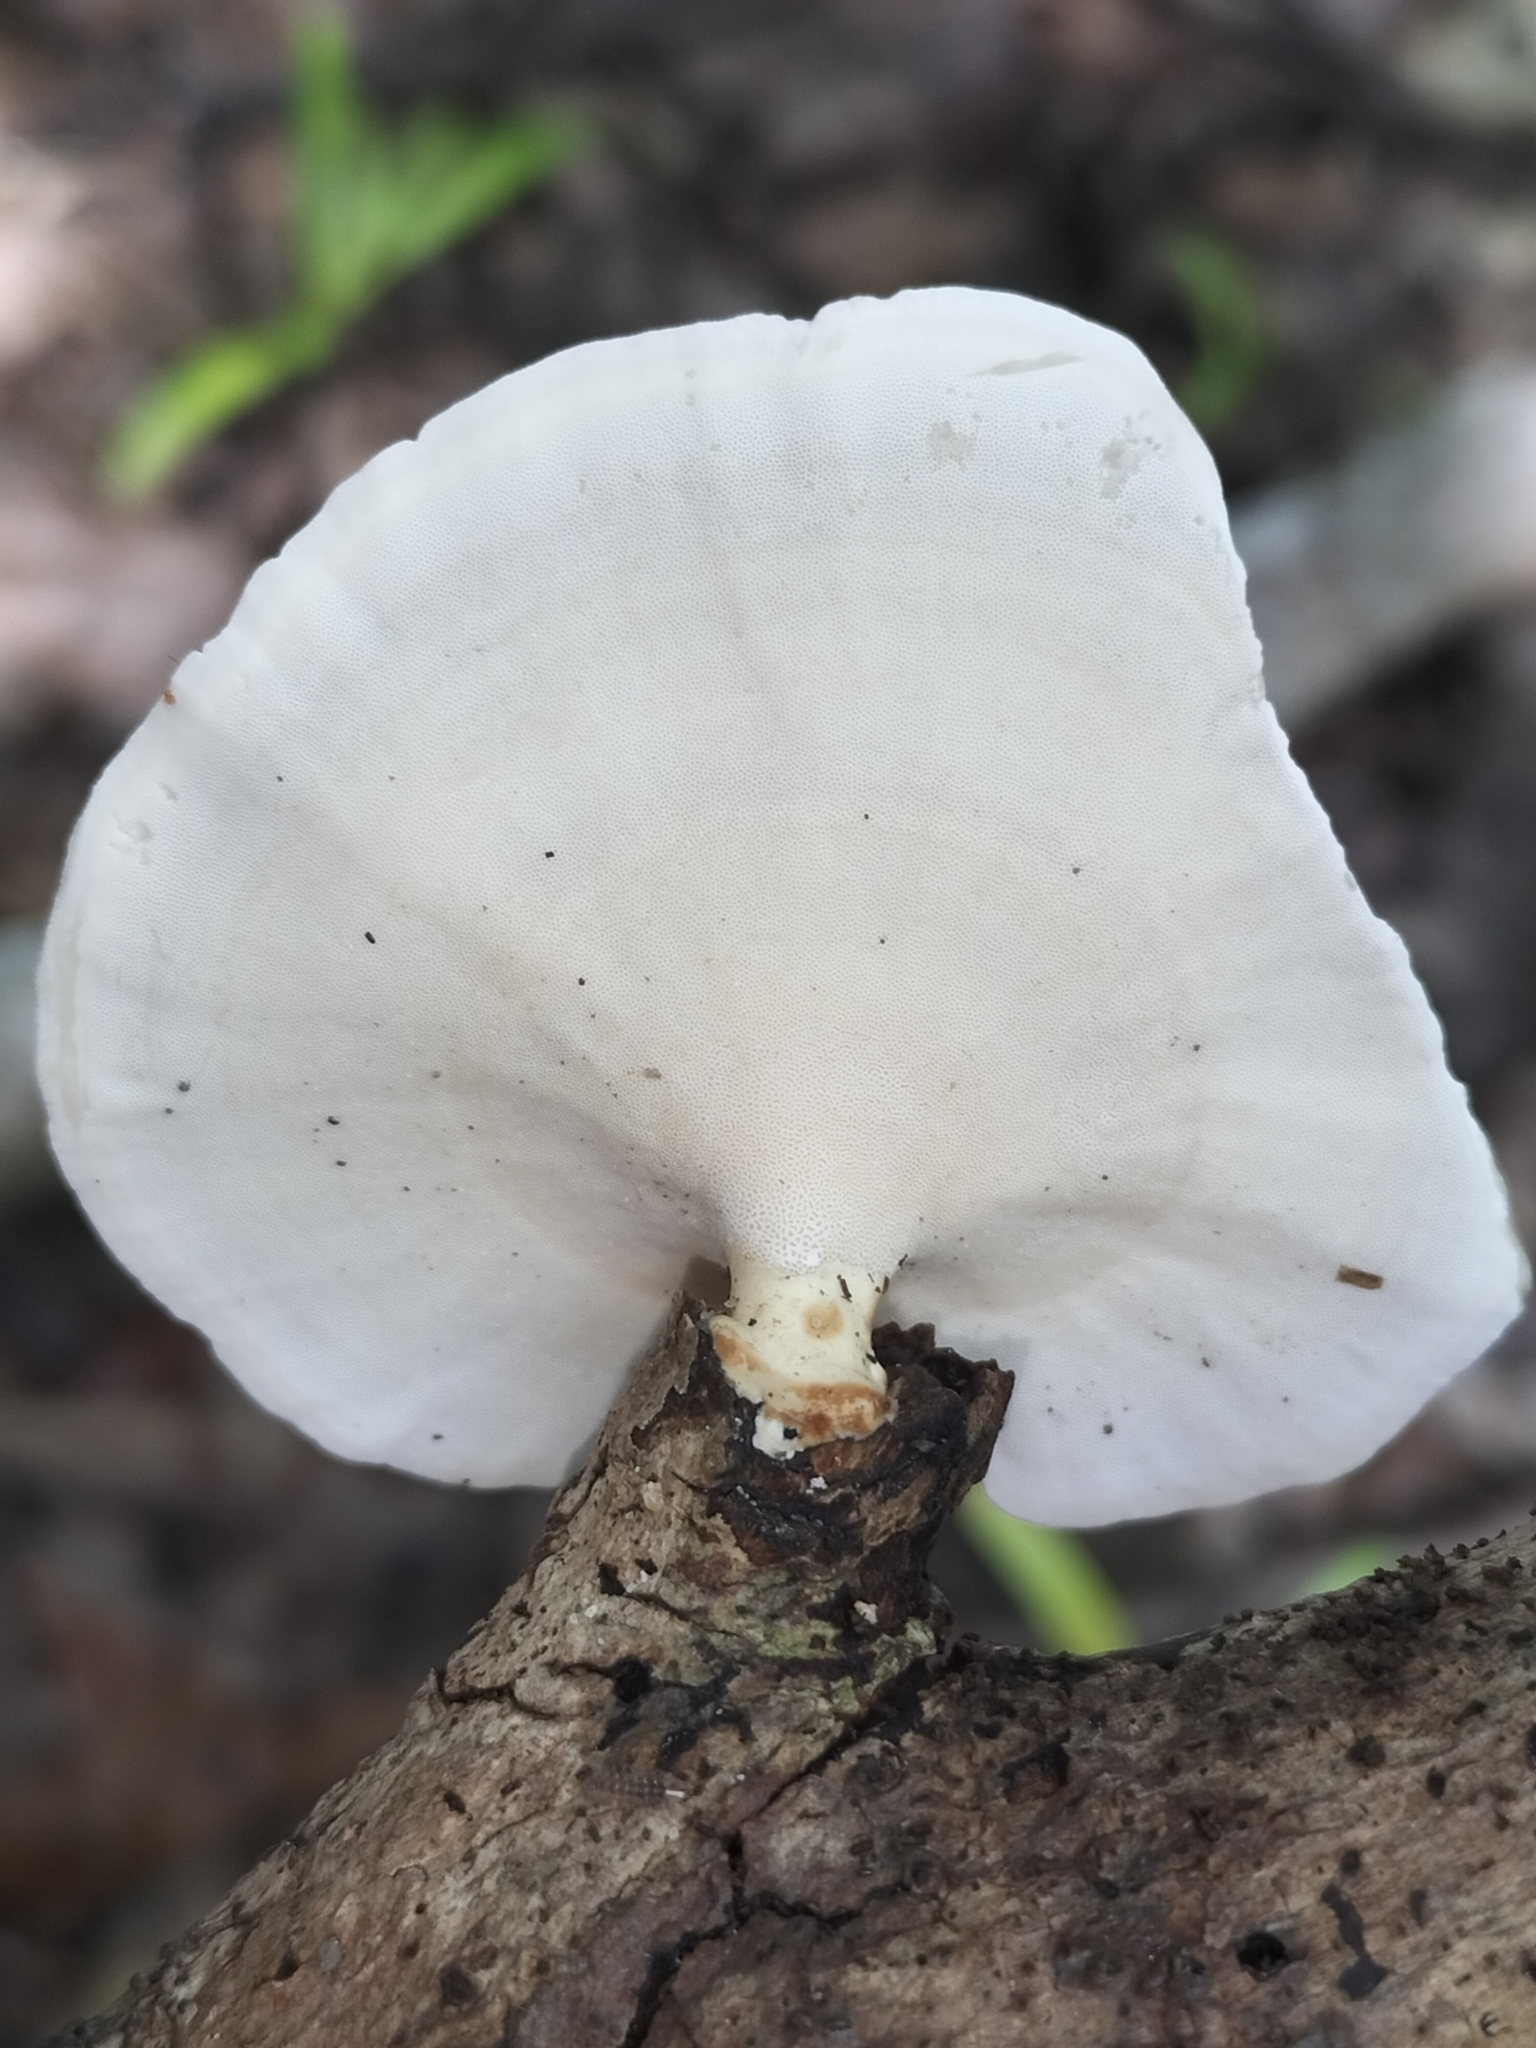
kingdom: Fungi
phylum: Basidiomycota
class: Agaricomycetes
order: Polyporales
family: Polyporaceae
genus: Microporus
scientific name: Microporus xanthopus
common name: Yellow-stemmed micropore
